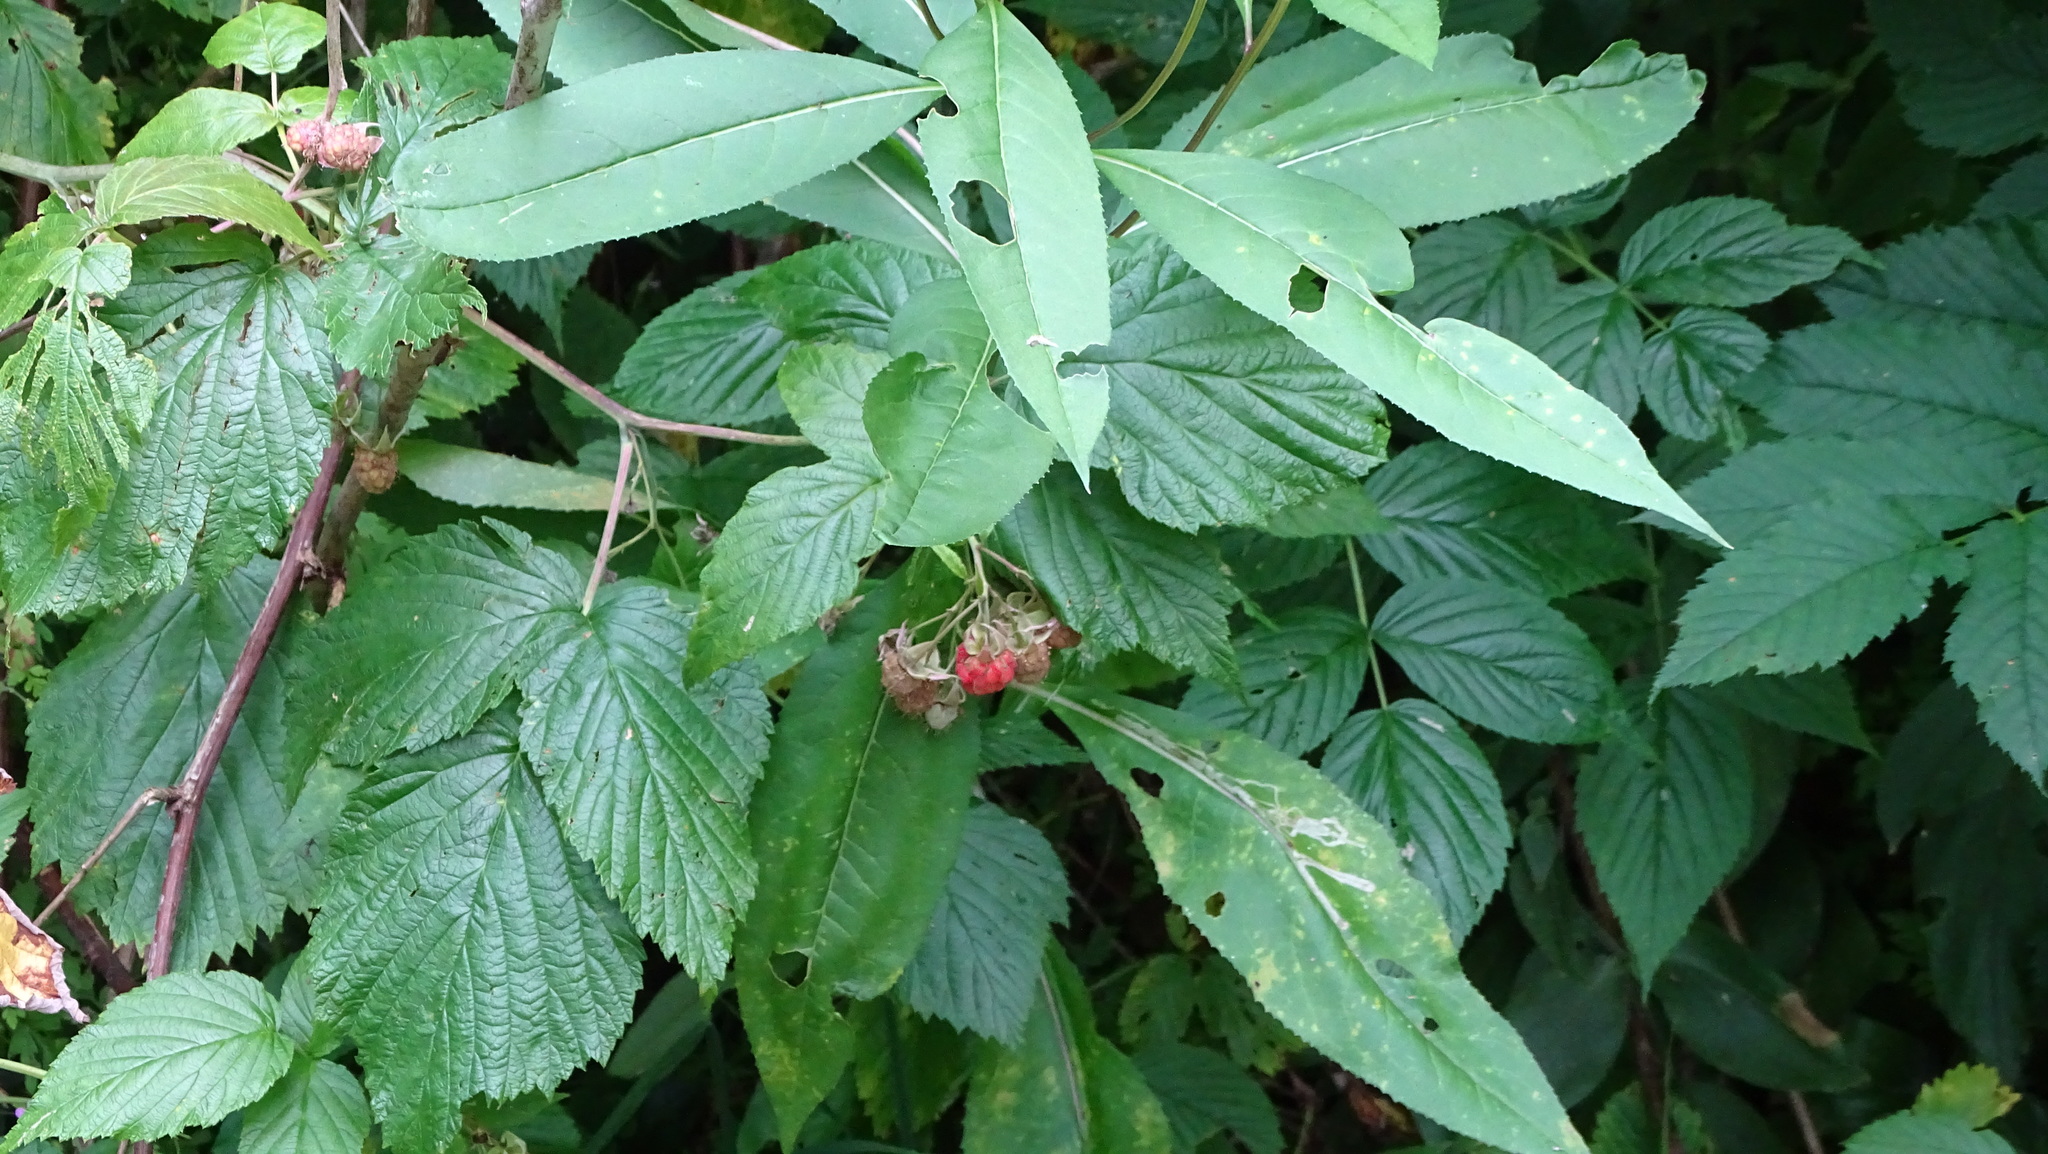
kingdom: Plantae
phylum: Tracheophyta
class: Magnoliopsida
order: Rosales
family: Rosaceae
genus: Rubus
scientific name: Rubus idaeus
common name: Raspberry
